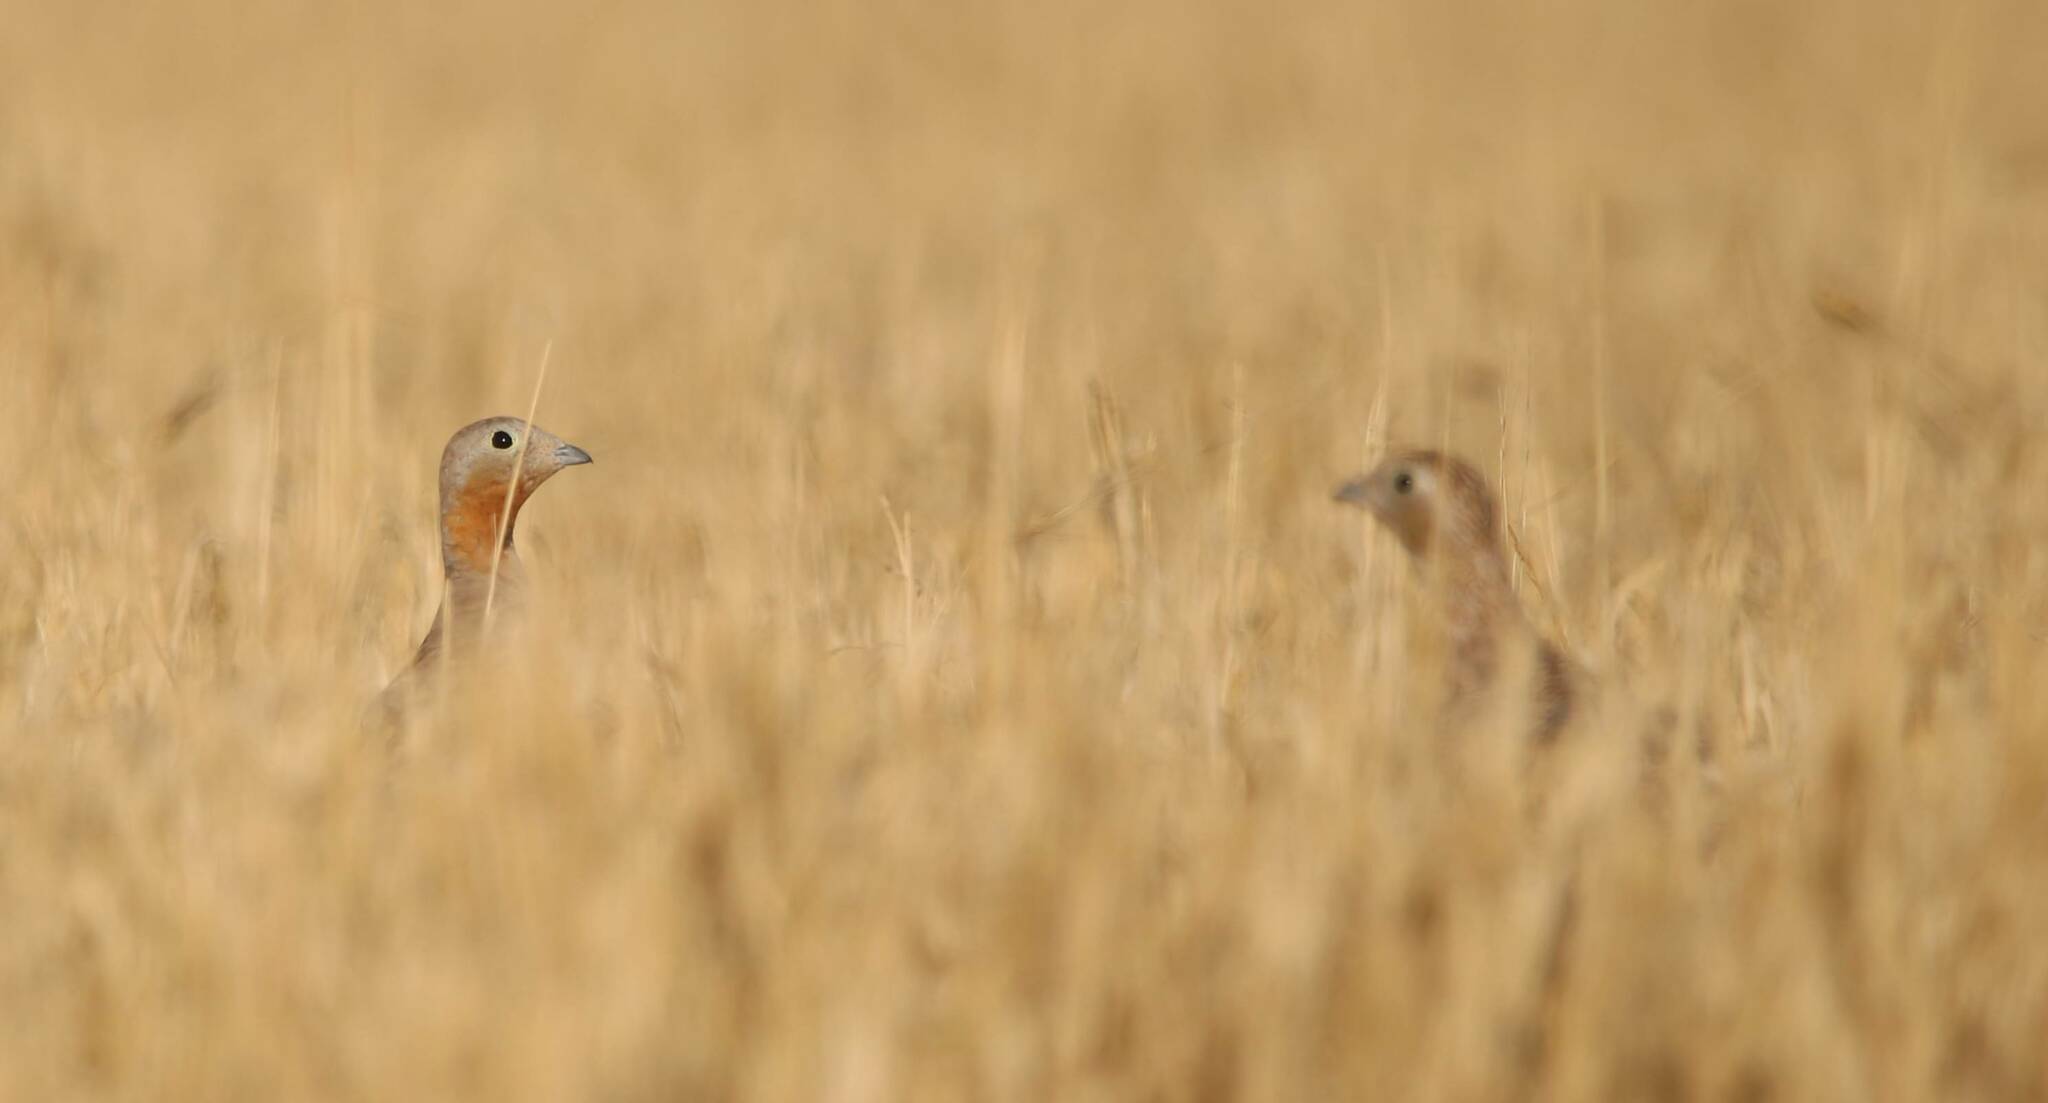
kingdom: Animalia
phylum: Chordata
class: Aves
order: Pteroclidiformes
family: Pteroclididae
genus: Pterocles
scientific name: Pterocles orientalis
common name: Black-bellied sandgrouse
